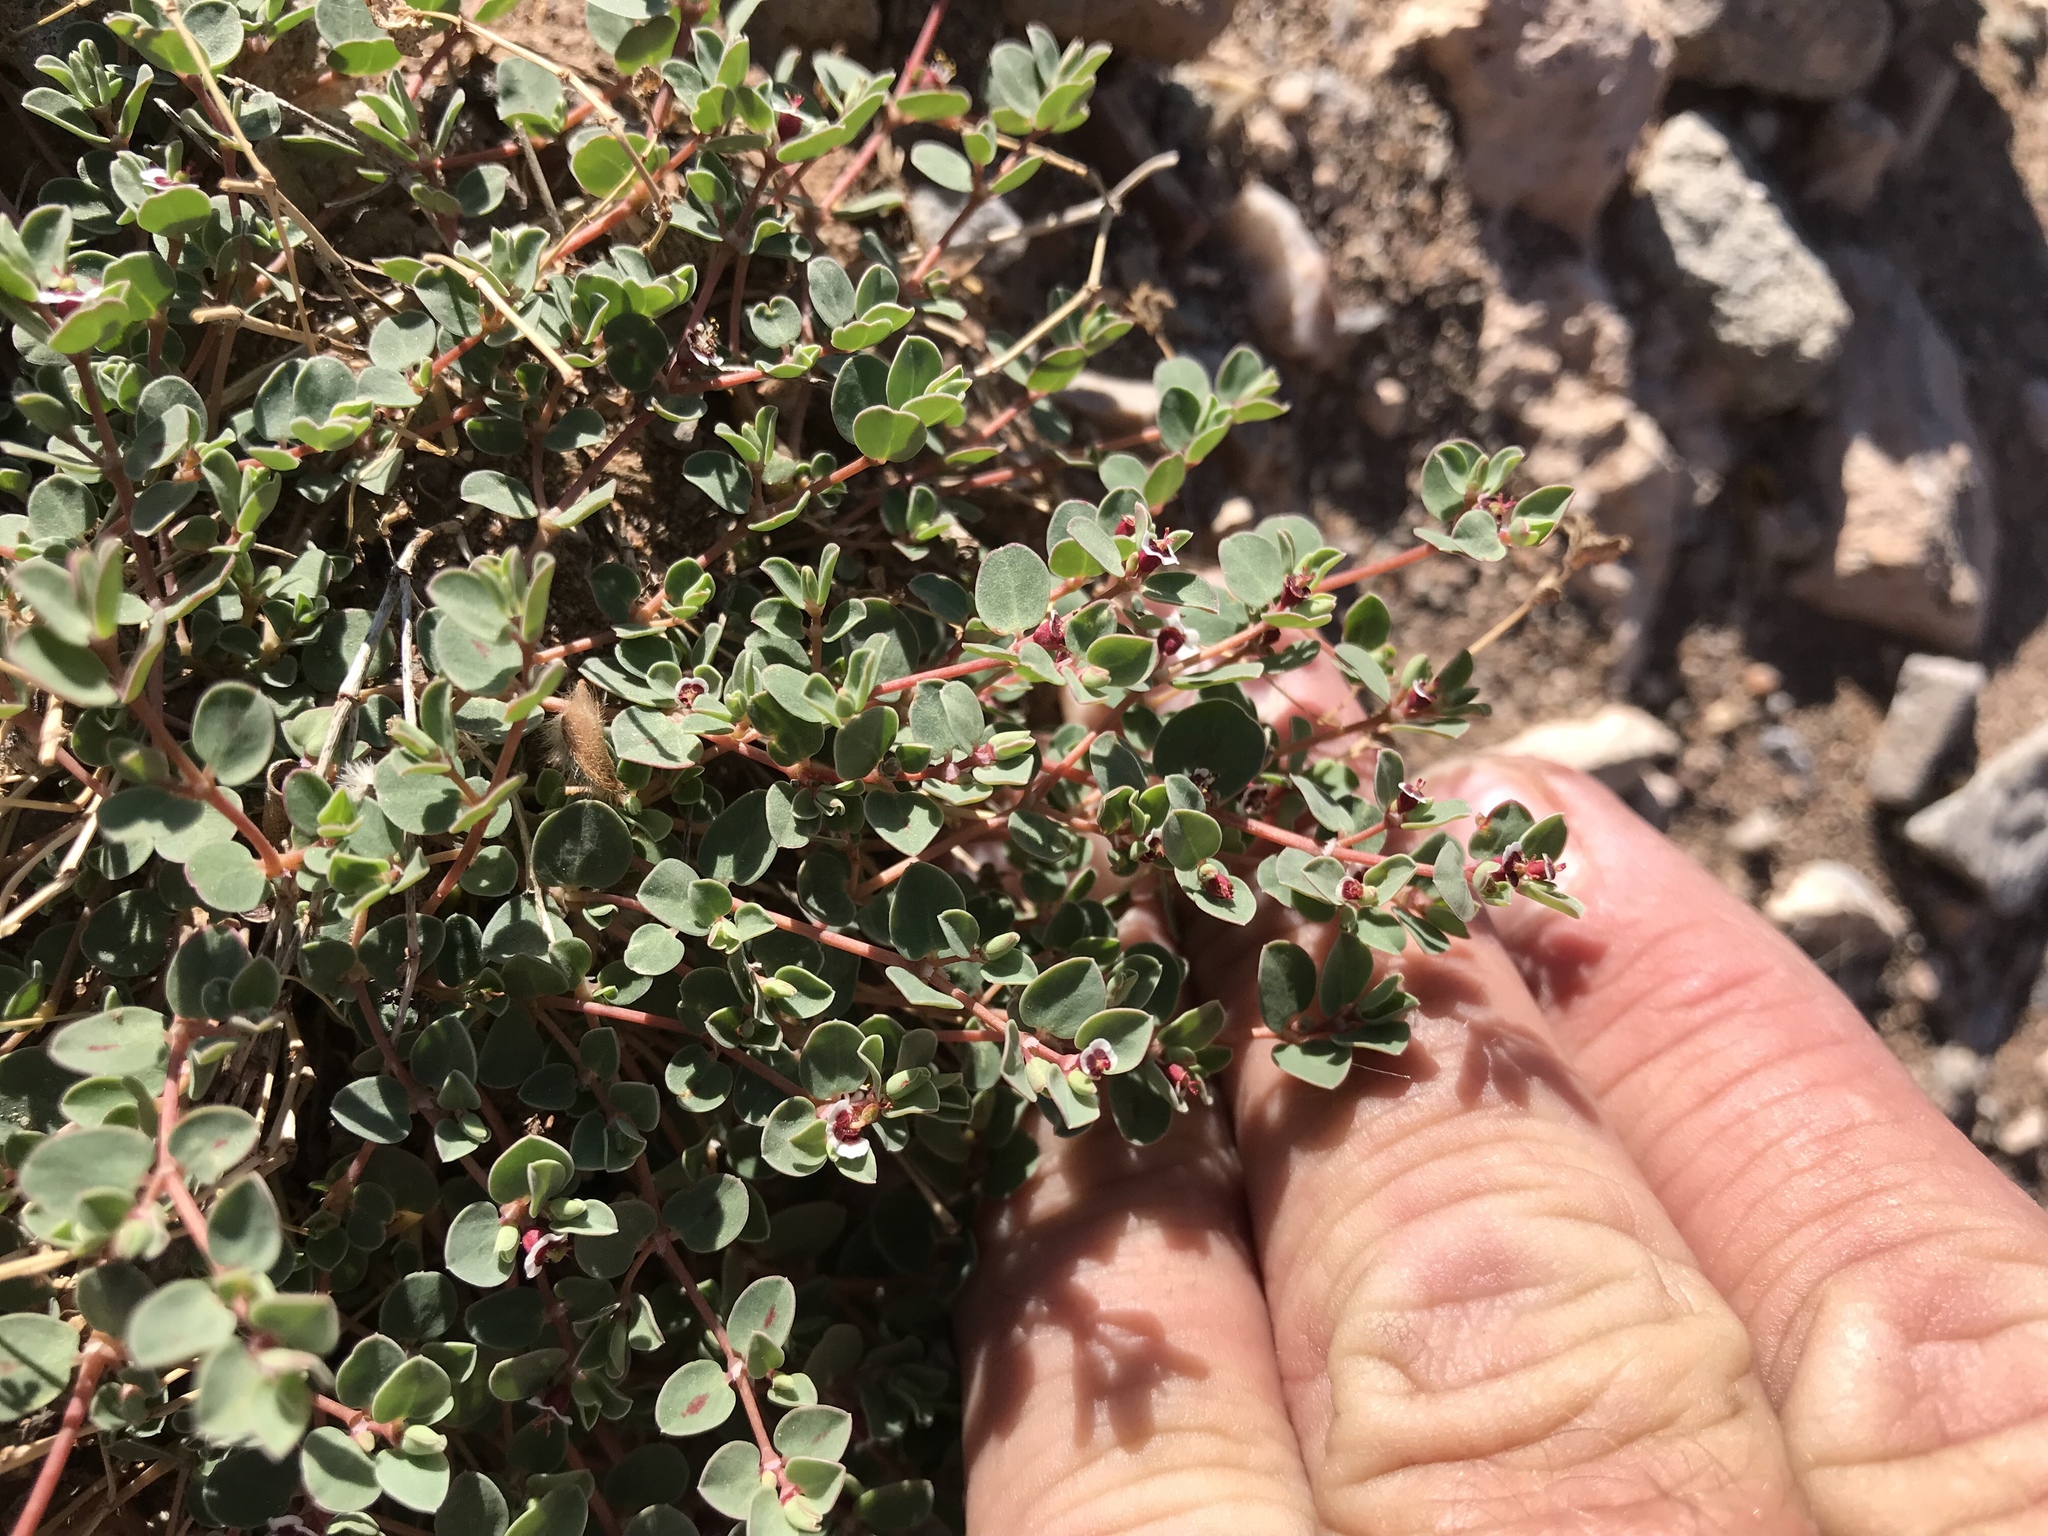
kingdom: Plantae
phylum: Tracheophyta
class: Magnoliopsida
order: Malpighiales
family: Euphorbiaceae
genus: Euphorbia
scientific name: Euphorbia albomarginata
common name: Whitemargin sandmat
